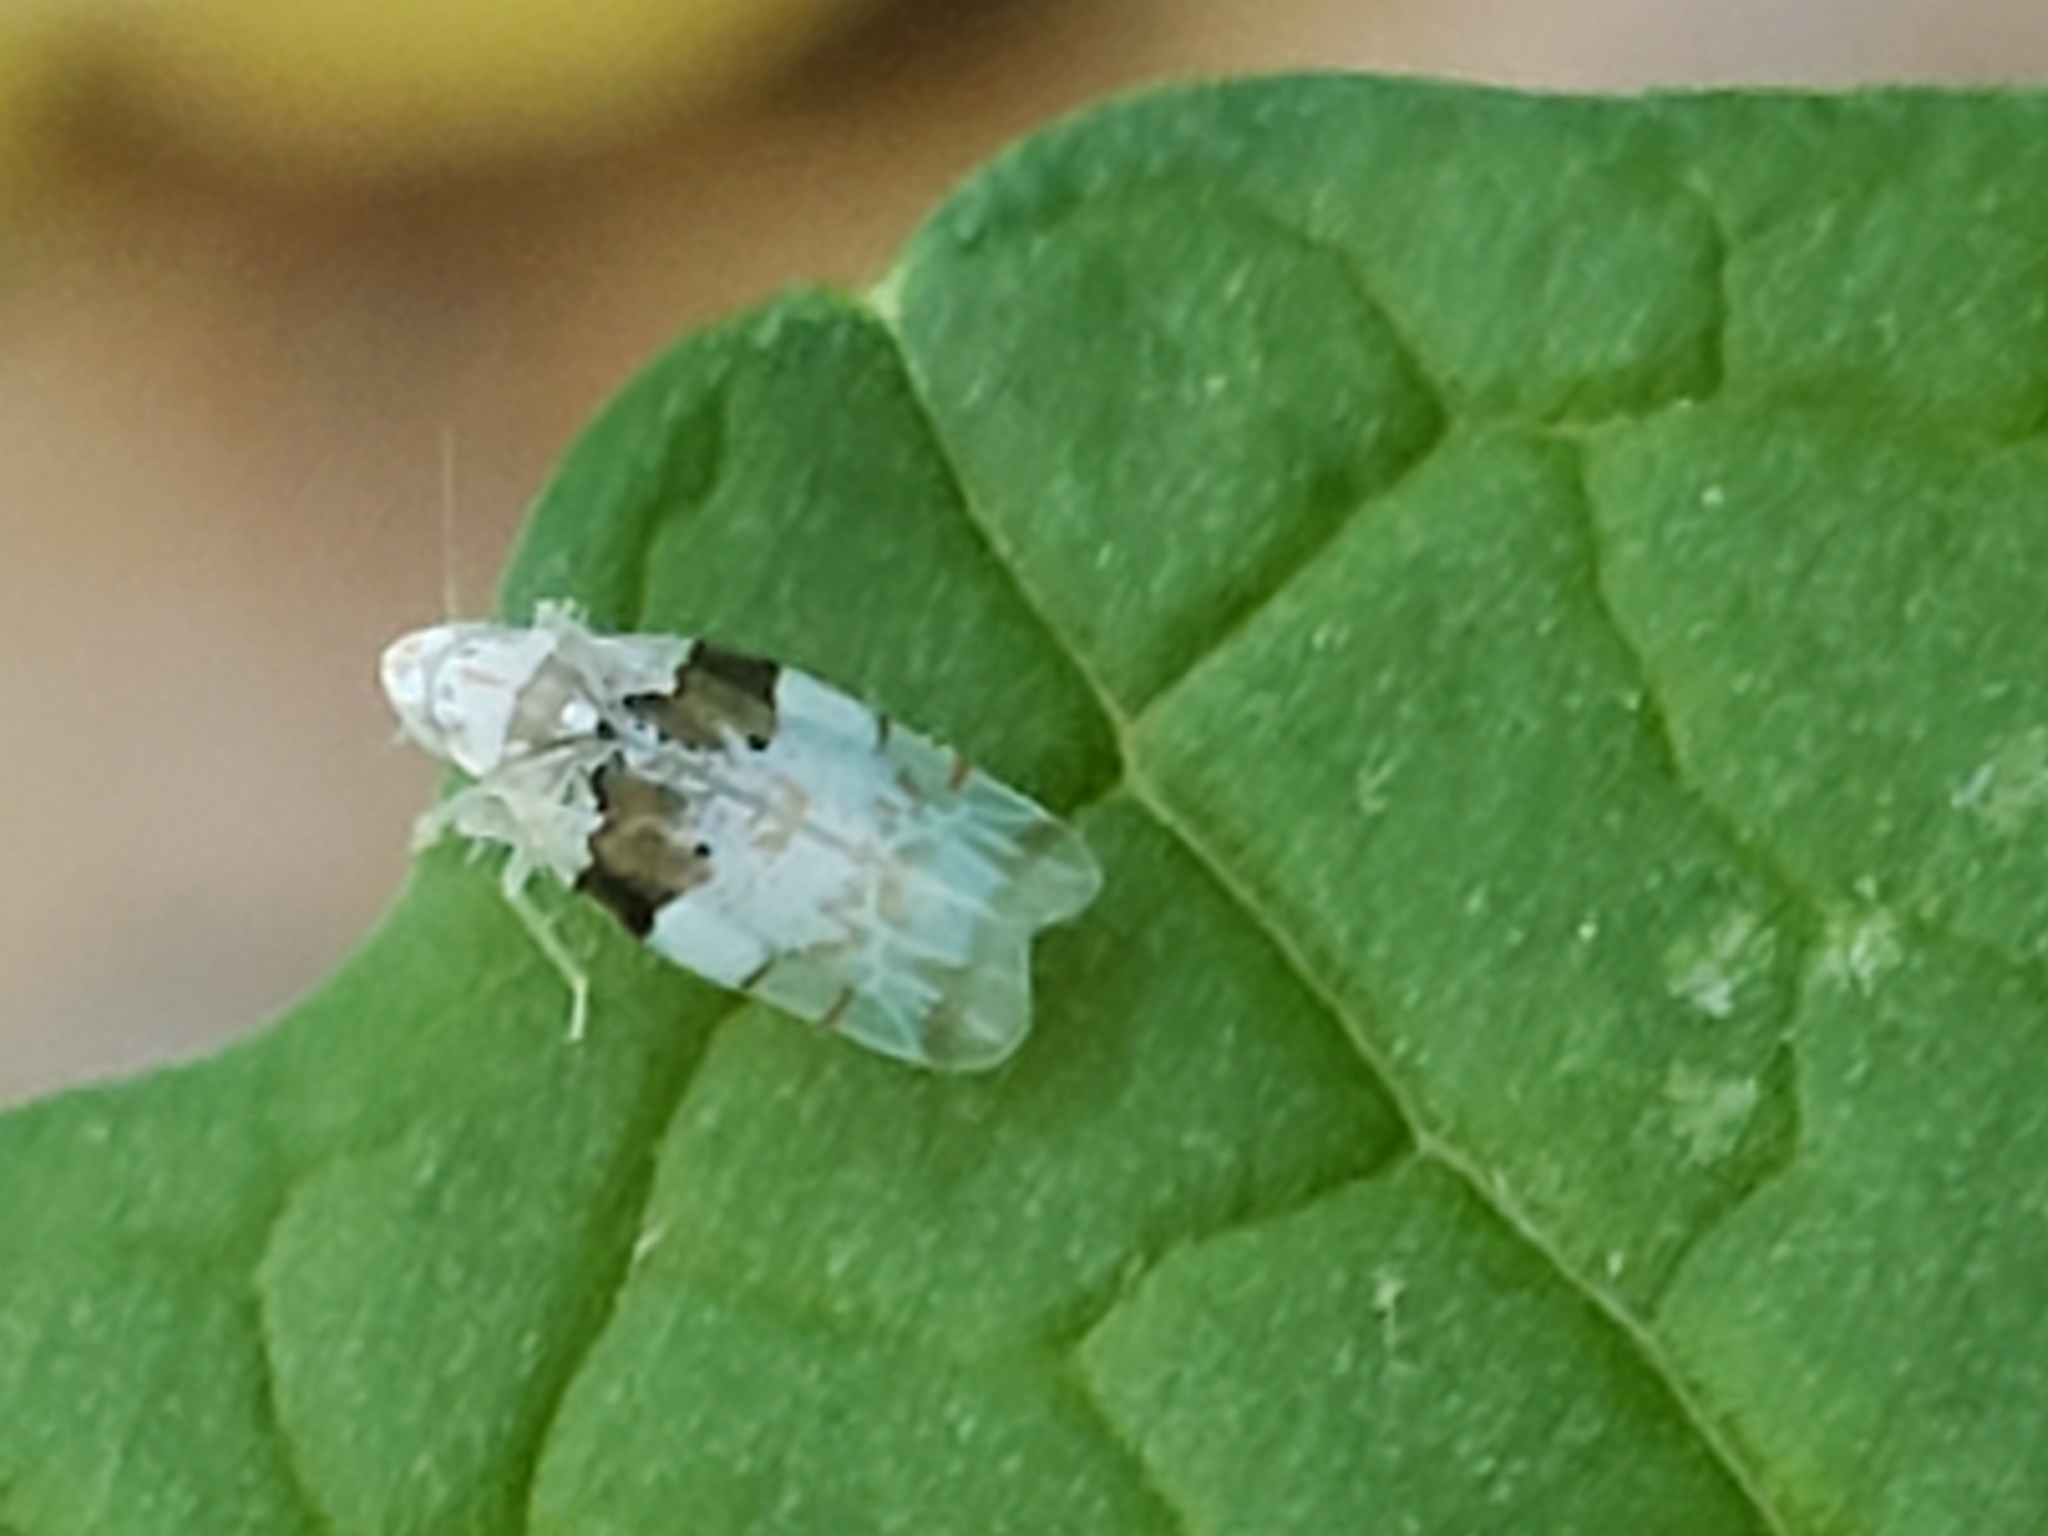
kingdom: Animalia
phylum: Arthropoda
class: Insecta
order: Hemiptera
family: Cicadellidae
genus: Hymetta
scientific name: Hymetta balteata
